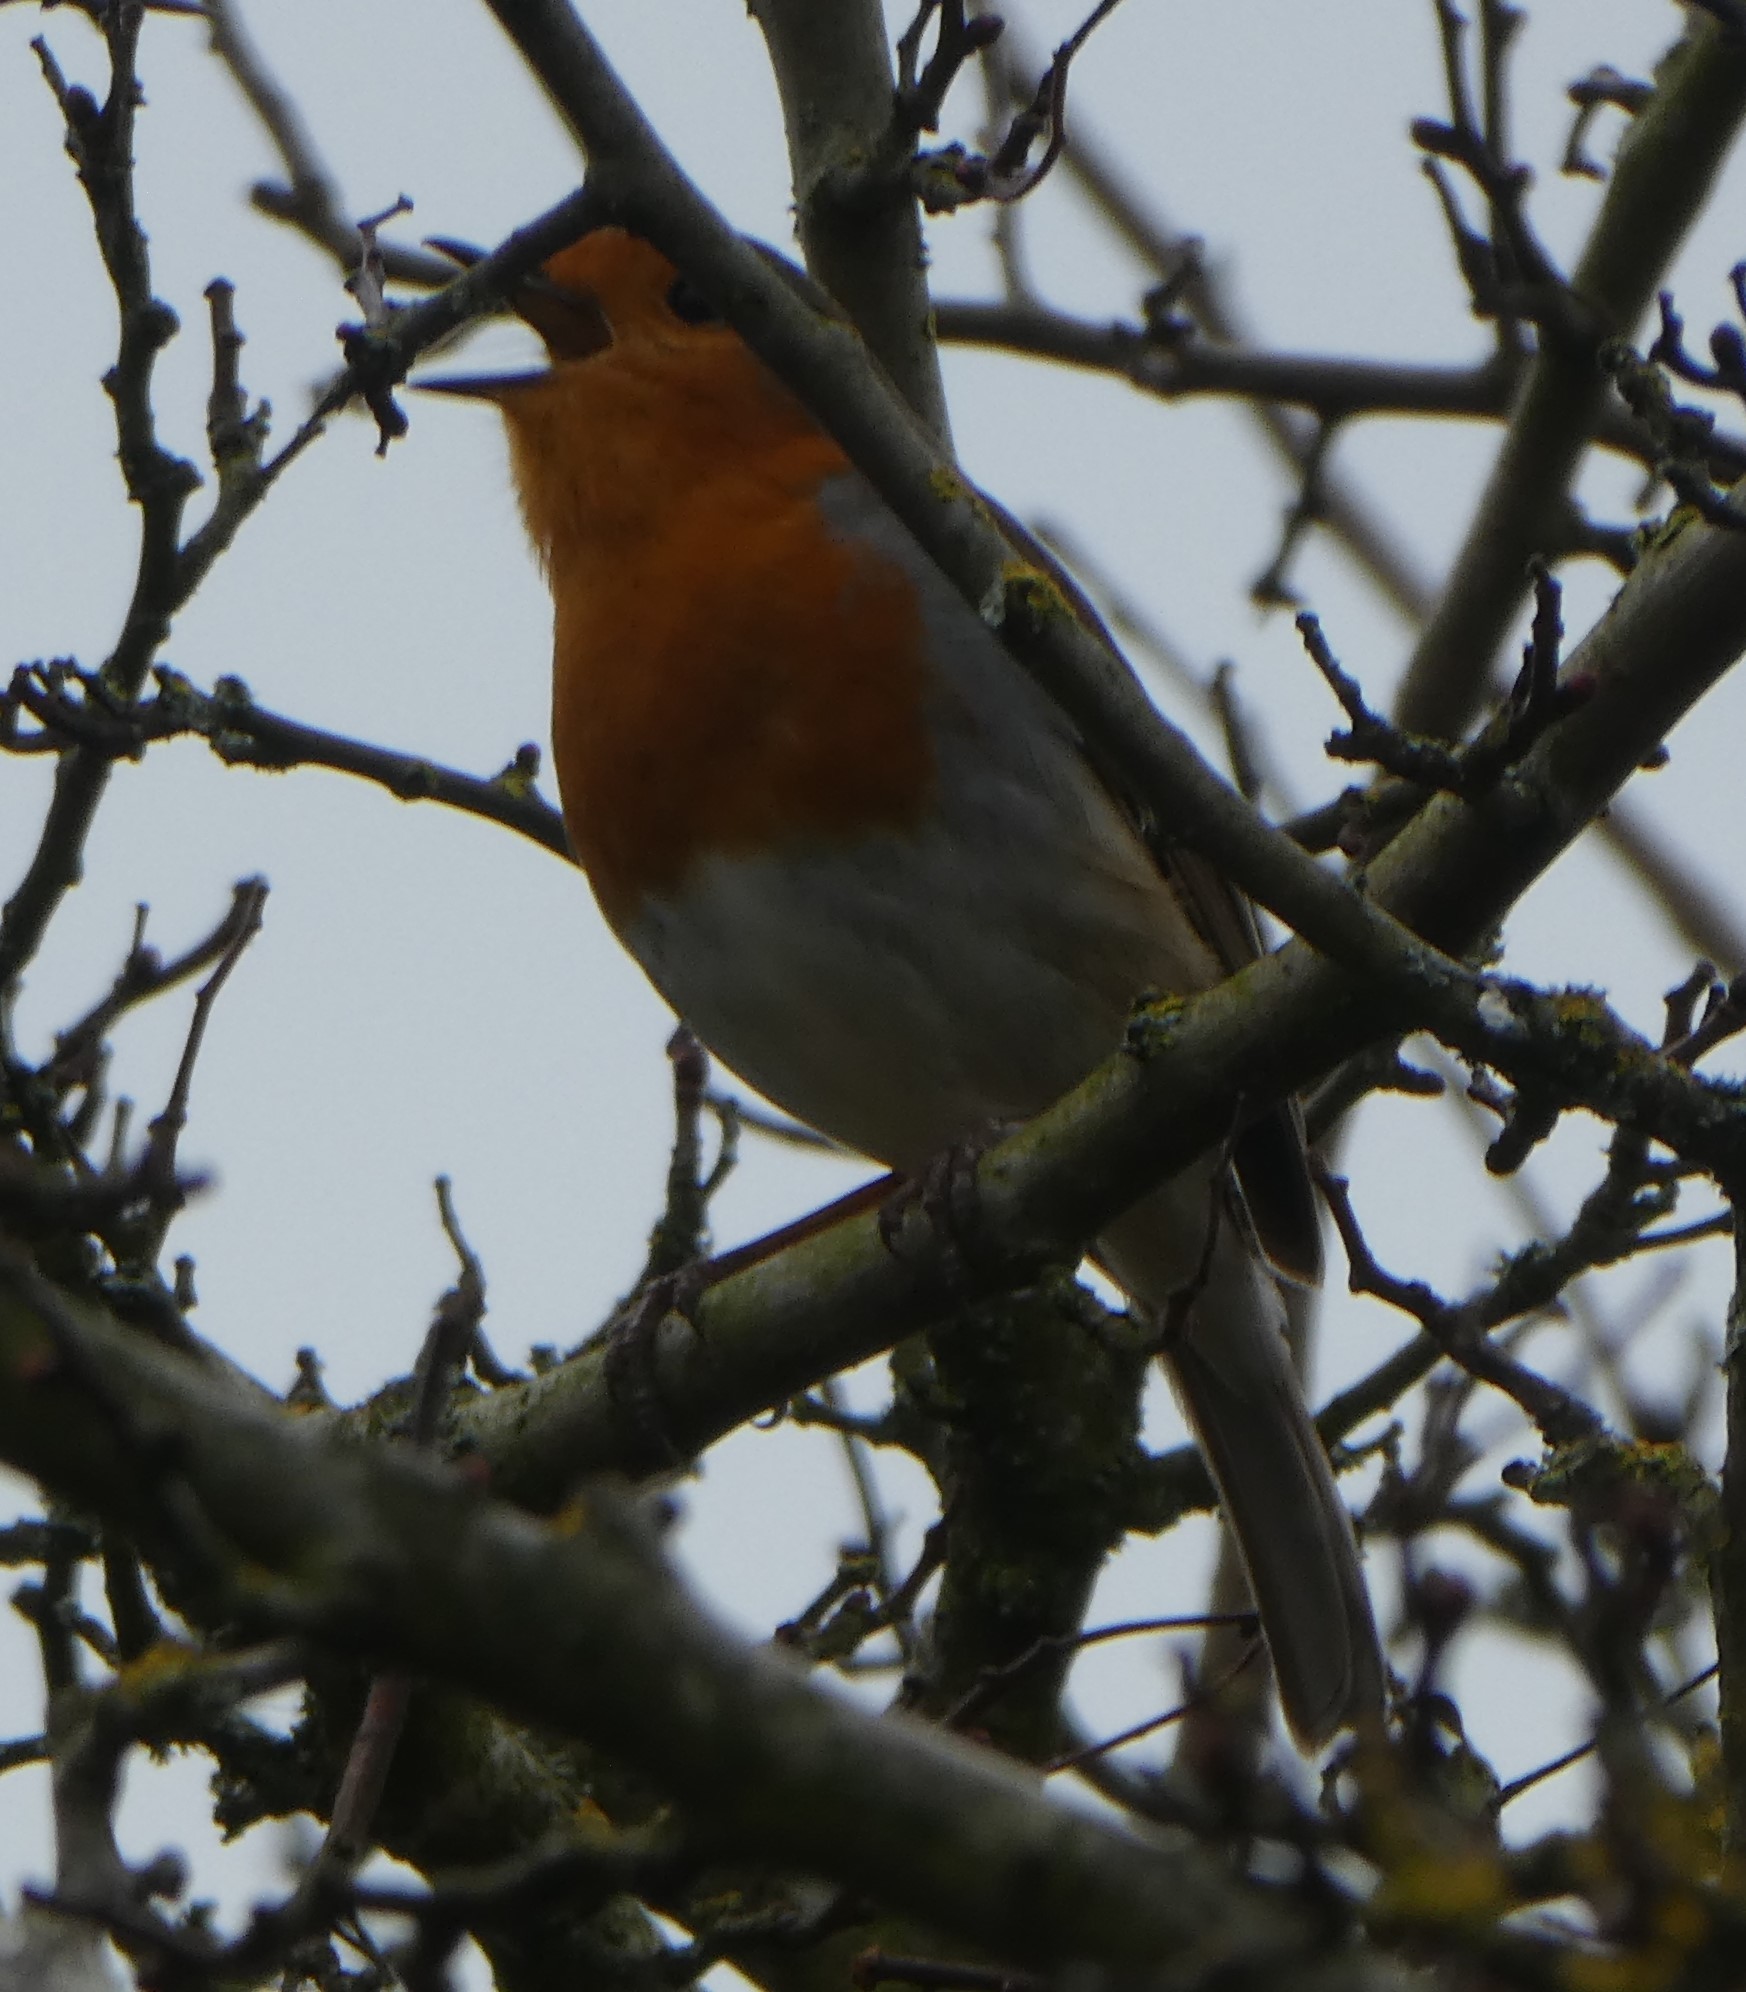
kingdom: Animalia
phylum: Chordata
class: Aves
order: Passeriformes
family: Muscicapidae
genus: Erithacus
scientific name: Erithacus rubecula
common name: European robin
